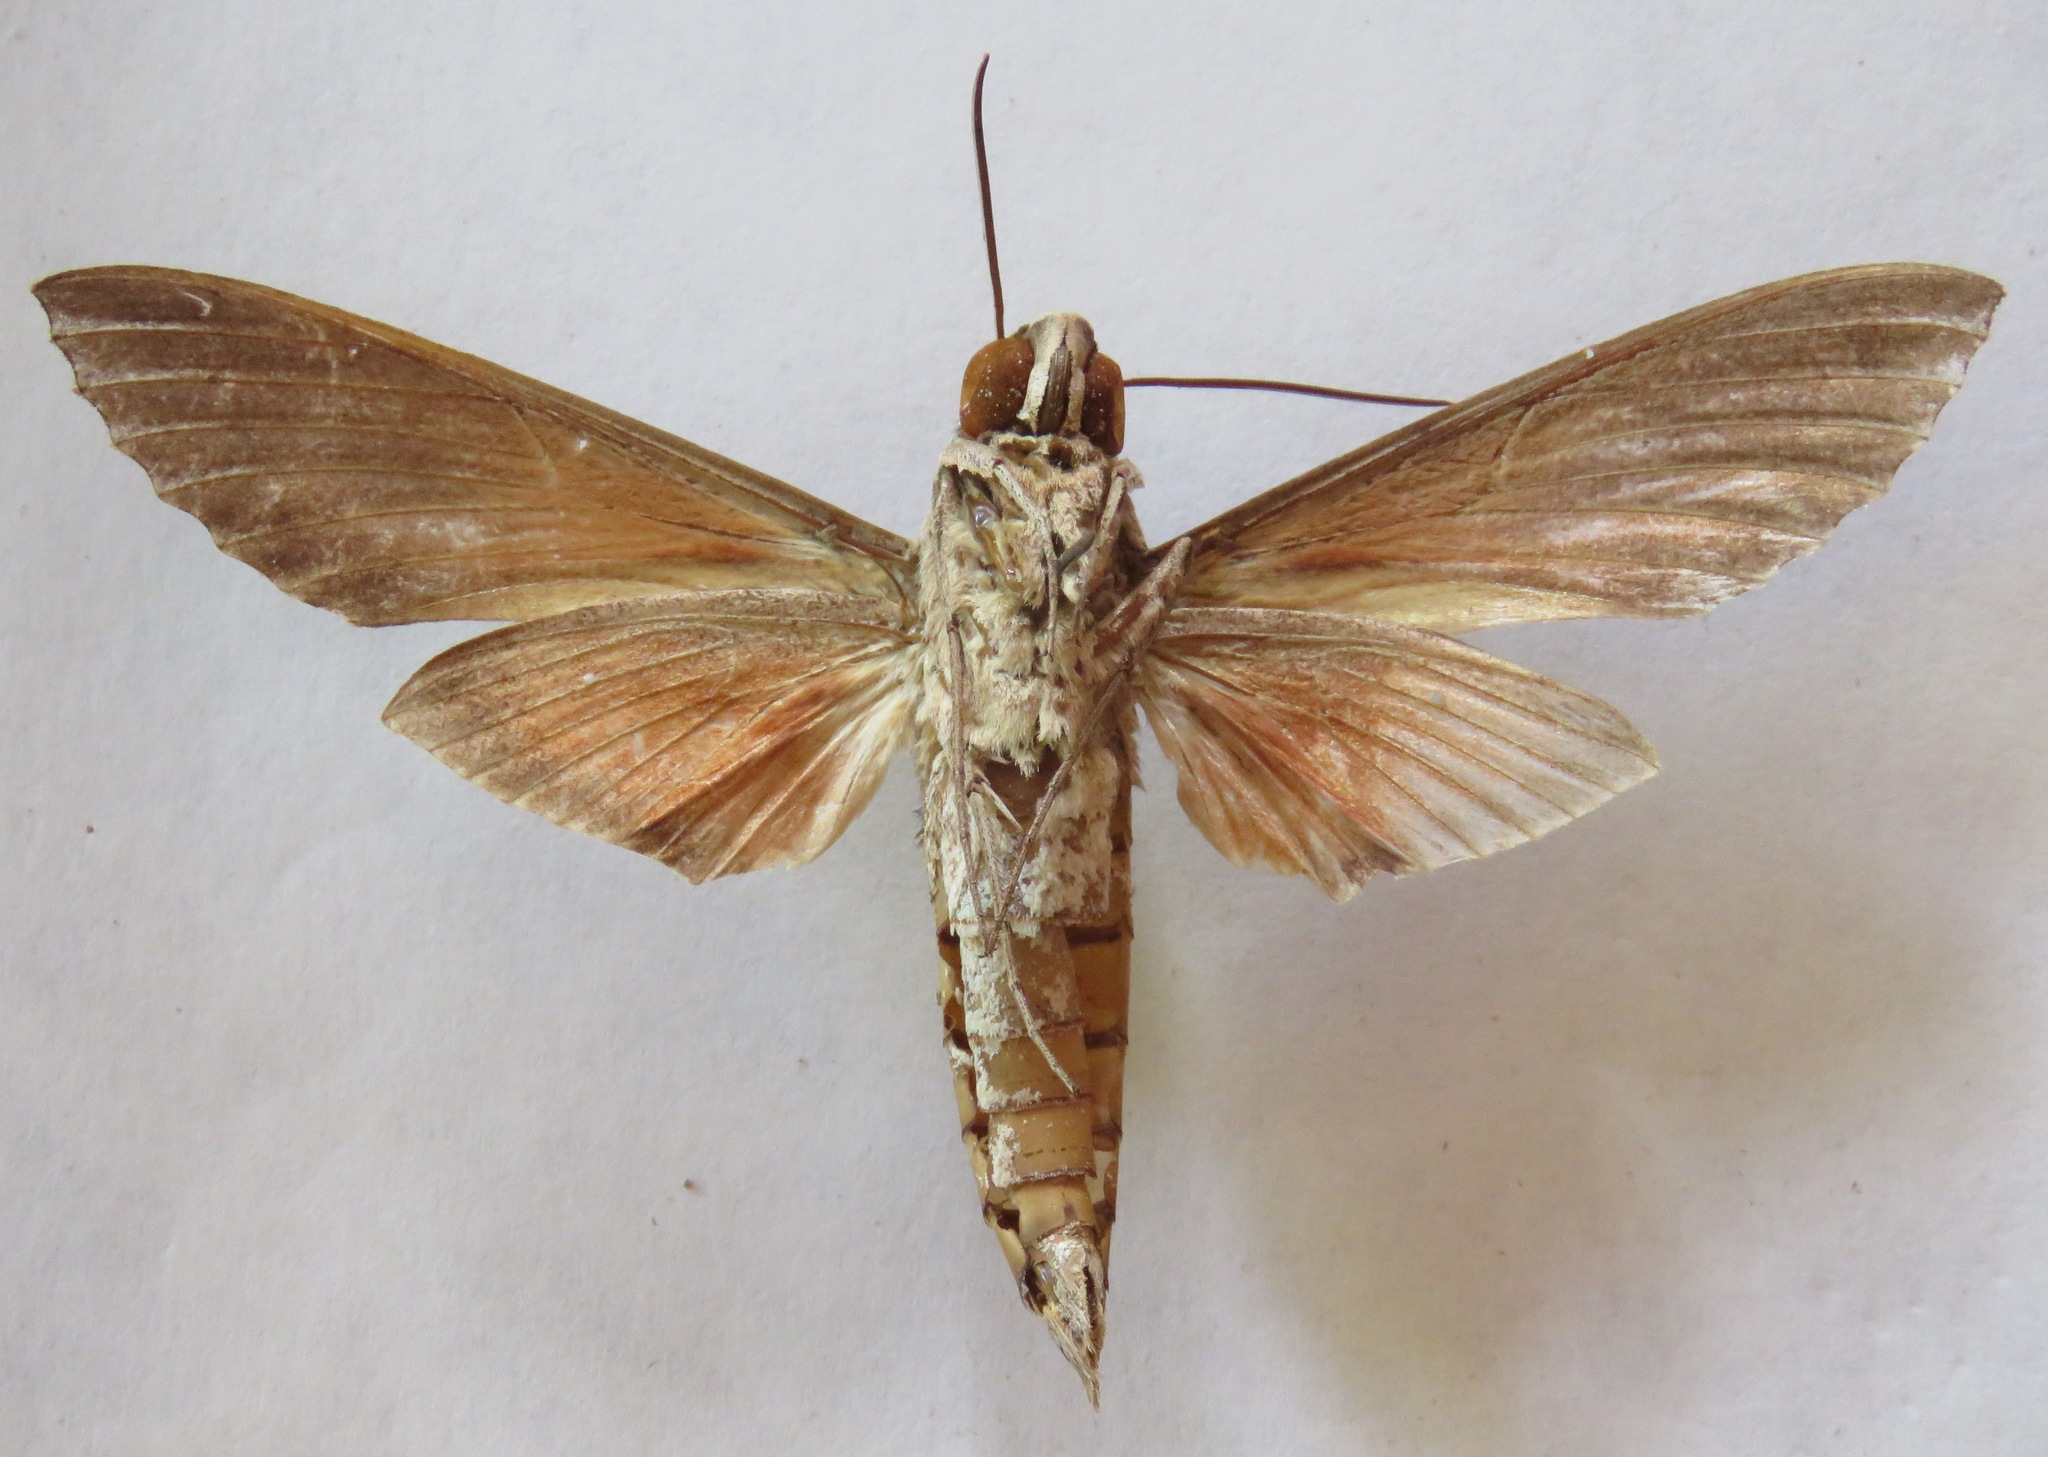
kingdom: Animalia
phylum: Arthropoda
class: Insecta
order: Lepidoptera
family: Sphingidae
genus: Erinnyis
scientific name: Erinnyis ello
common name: Ello sphinx
